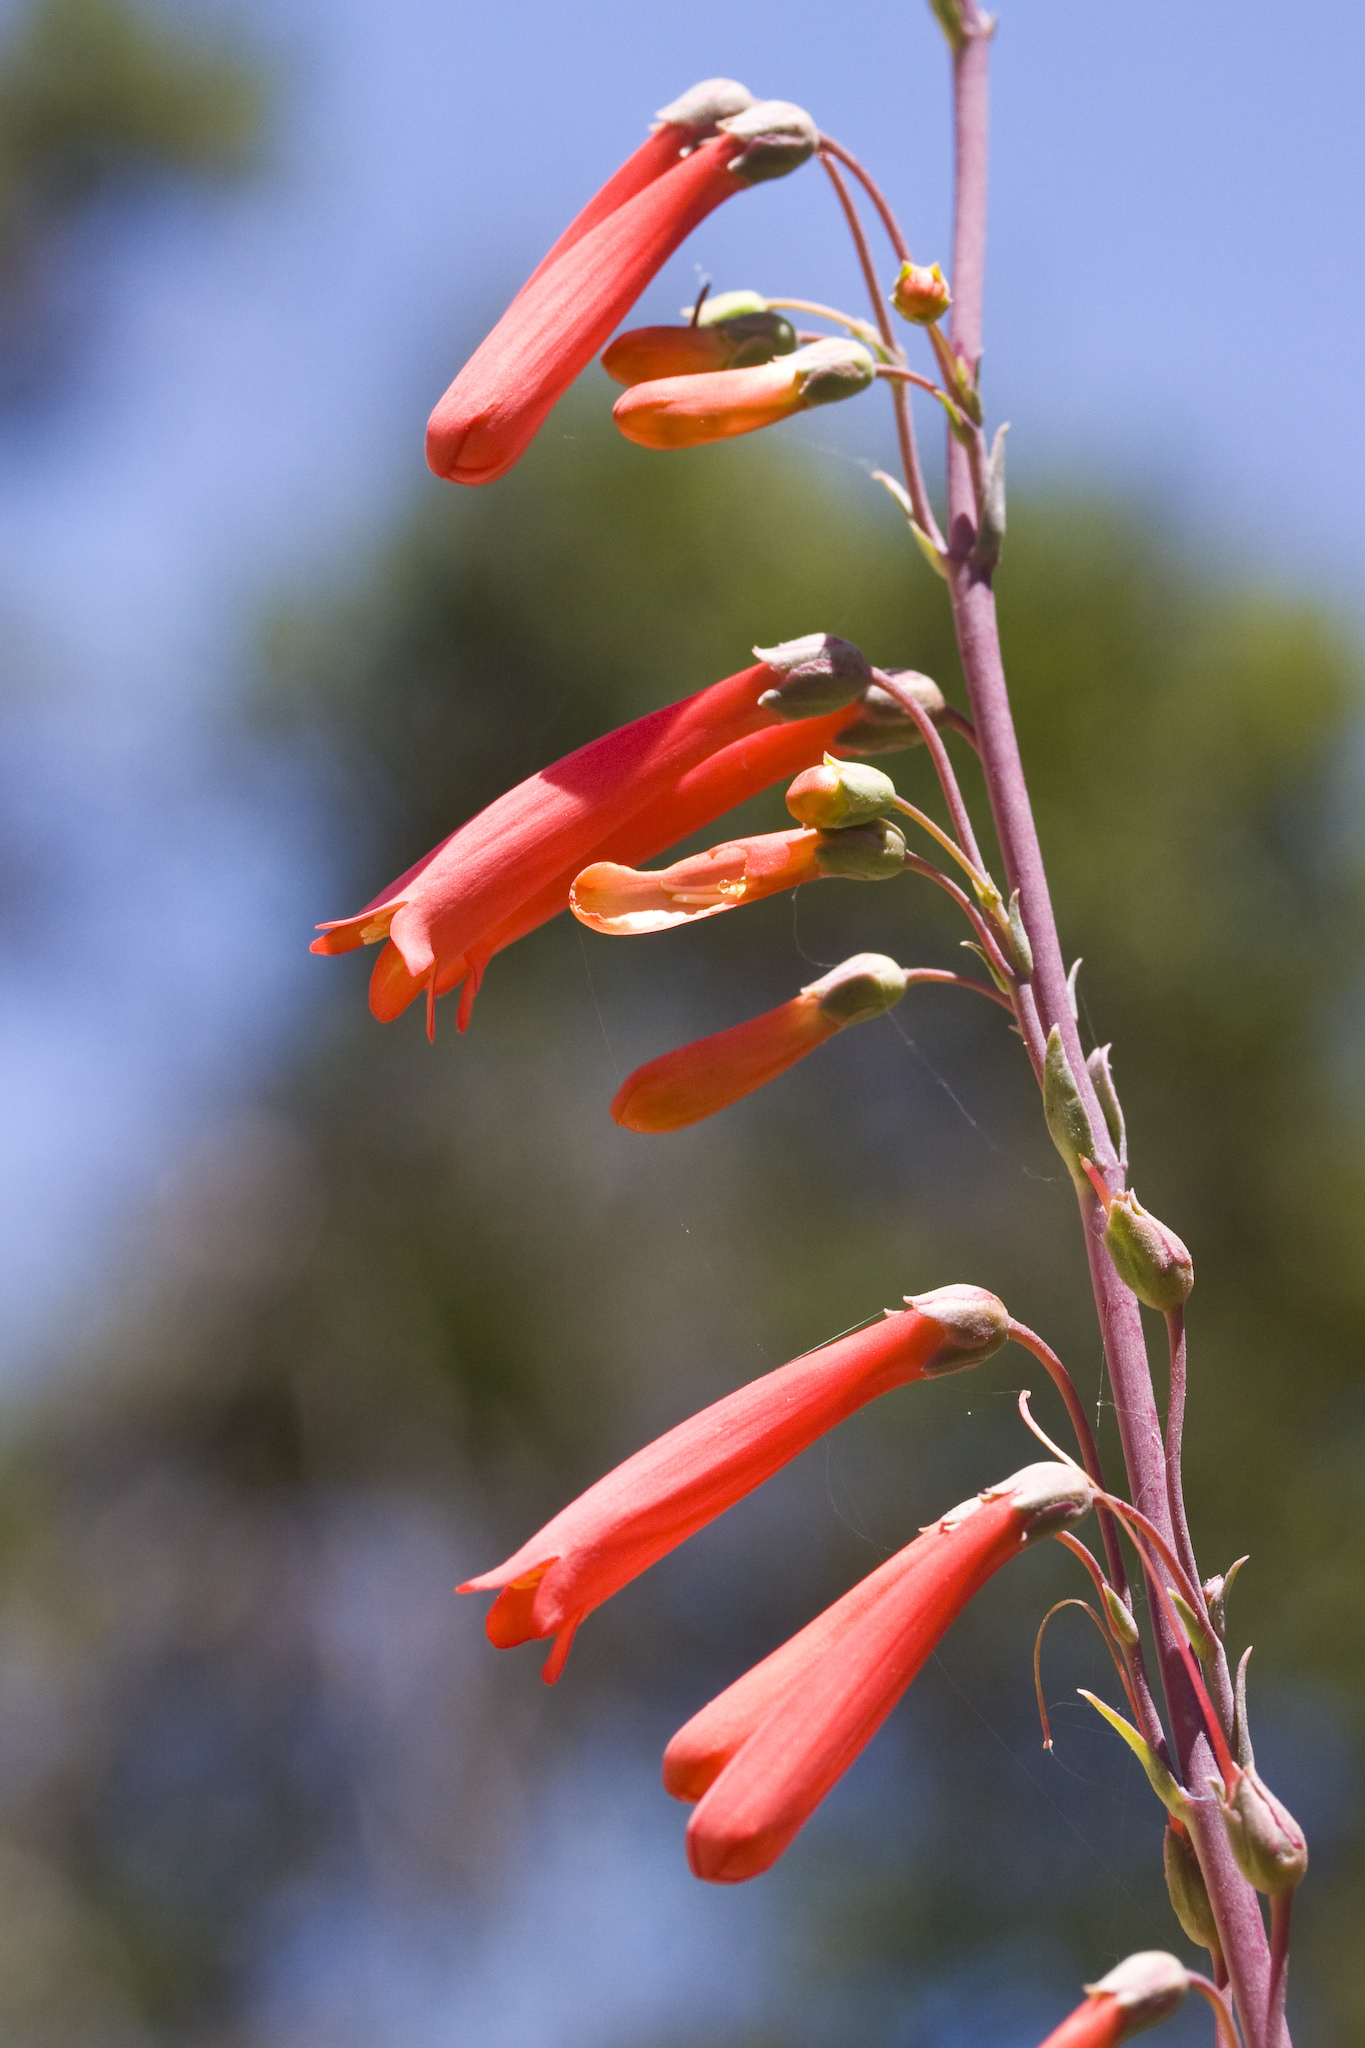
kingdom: Plantae
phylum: Tracheophyta
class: Magnoliopsida
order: Lamiales
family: Plantaginaceae
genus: Penstemon
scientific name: Penstemon centranthifolius
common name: Scarlet bugler
